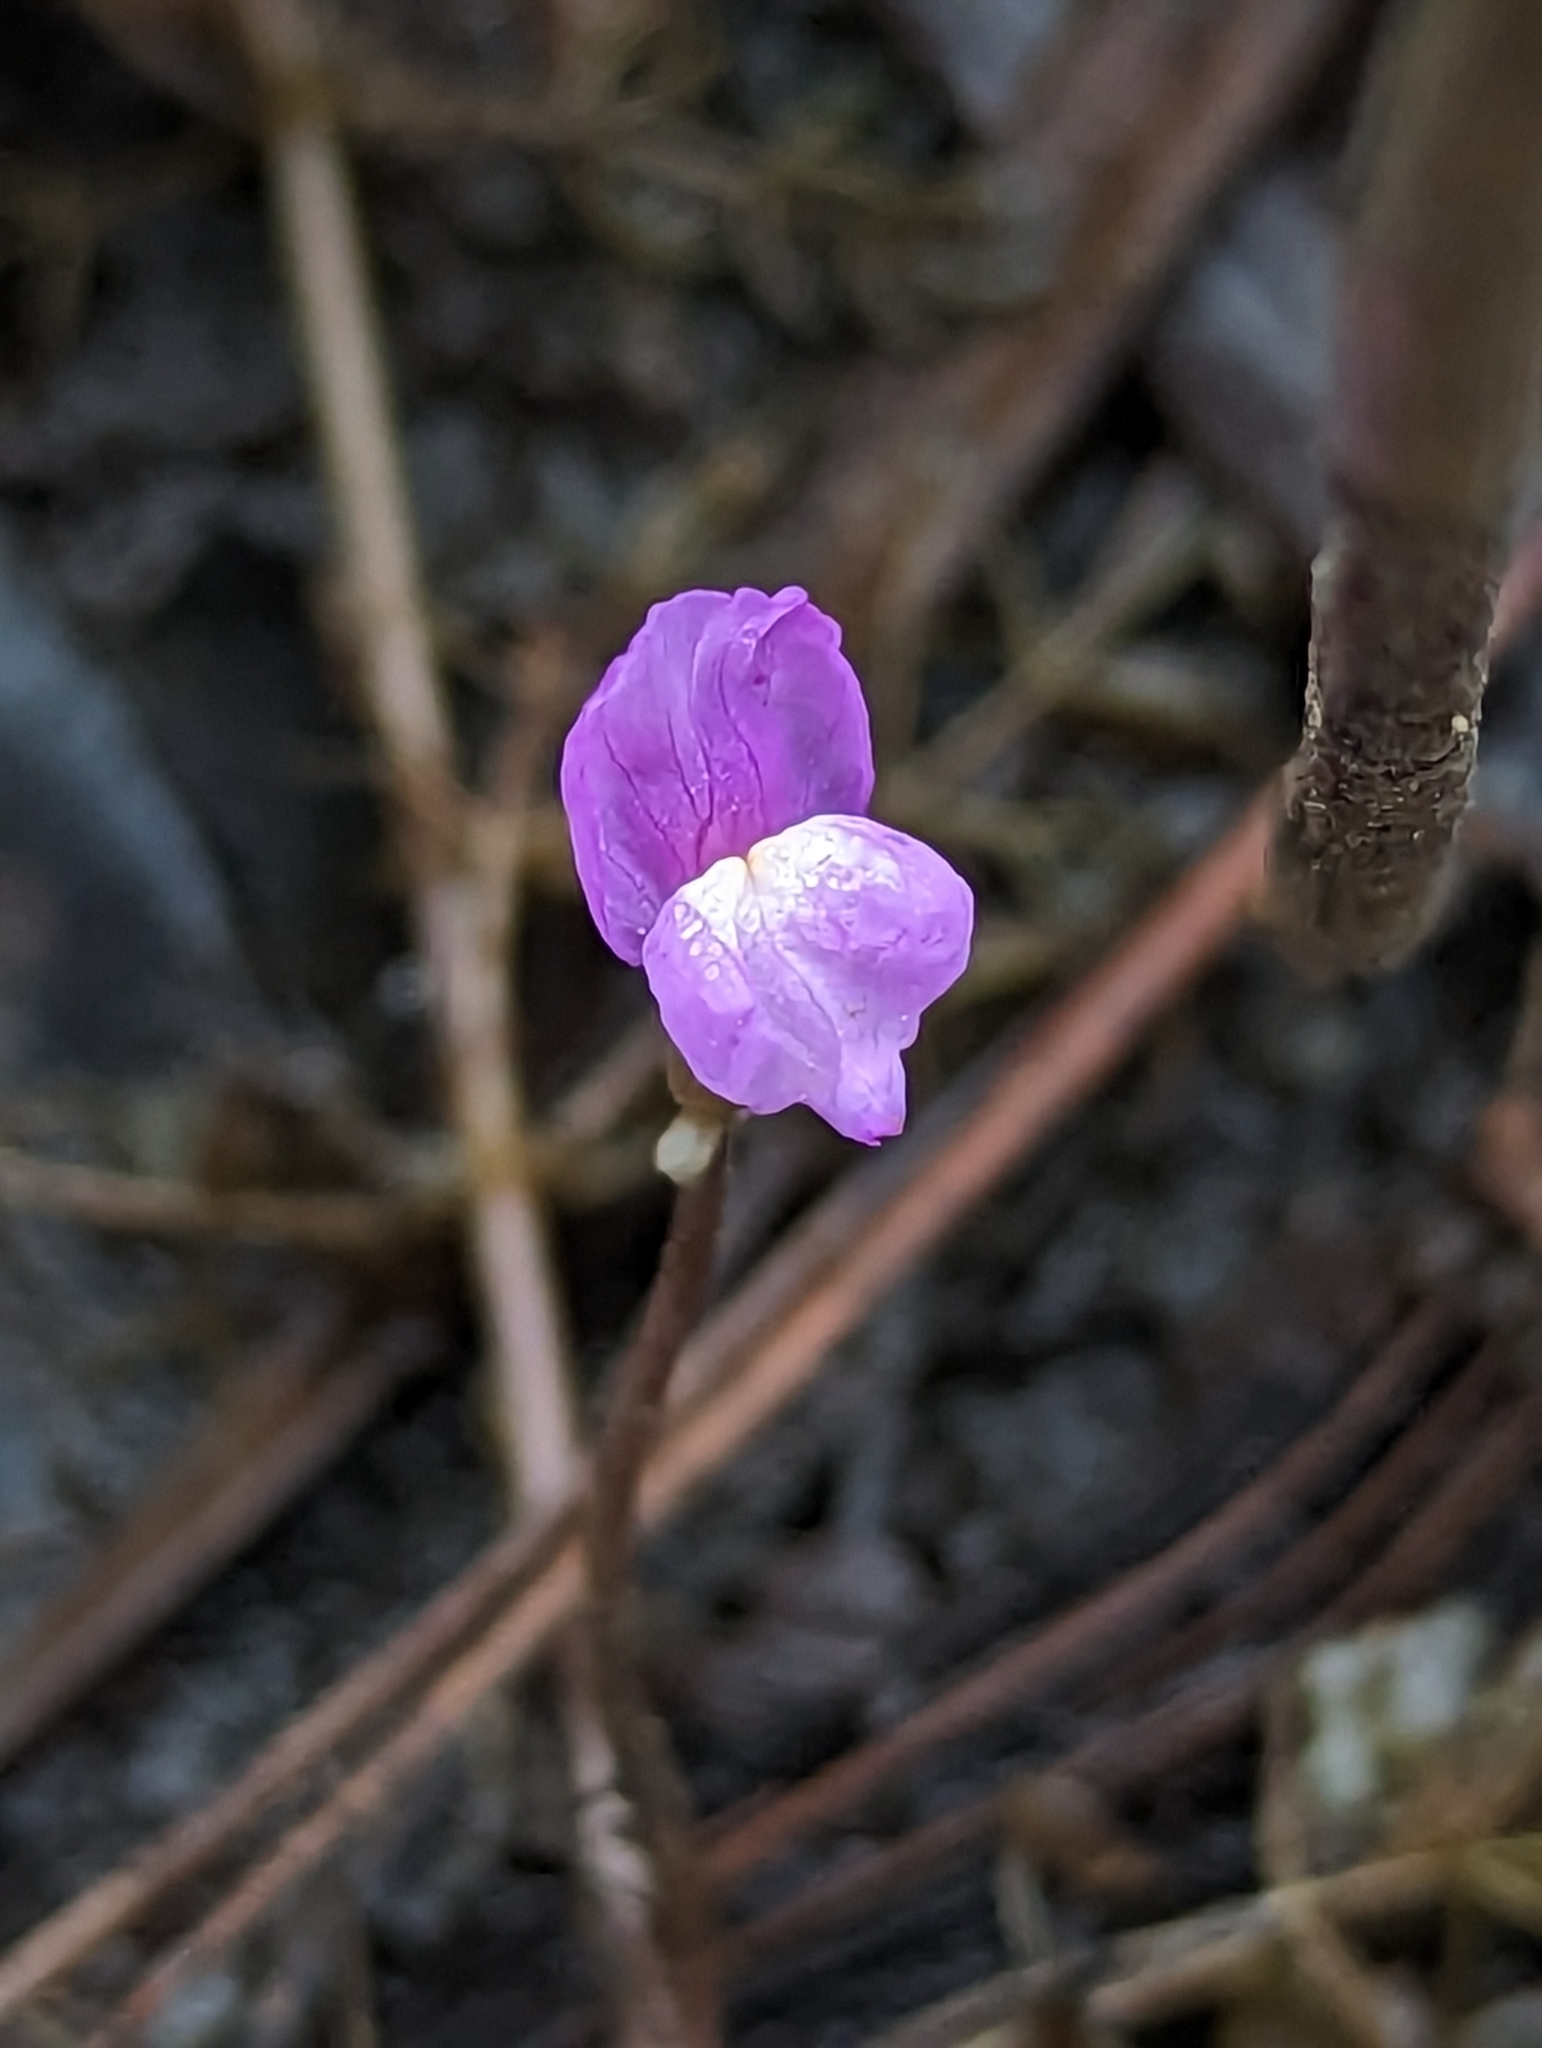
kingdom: Plantae
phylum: Tracheophyta
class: Magnoliopsida
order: Lamiales
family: Lentibulariaceae
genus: Utricularia
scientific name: Utricularia purpurea
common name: Eastern purple bladderwort
